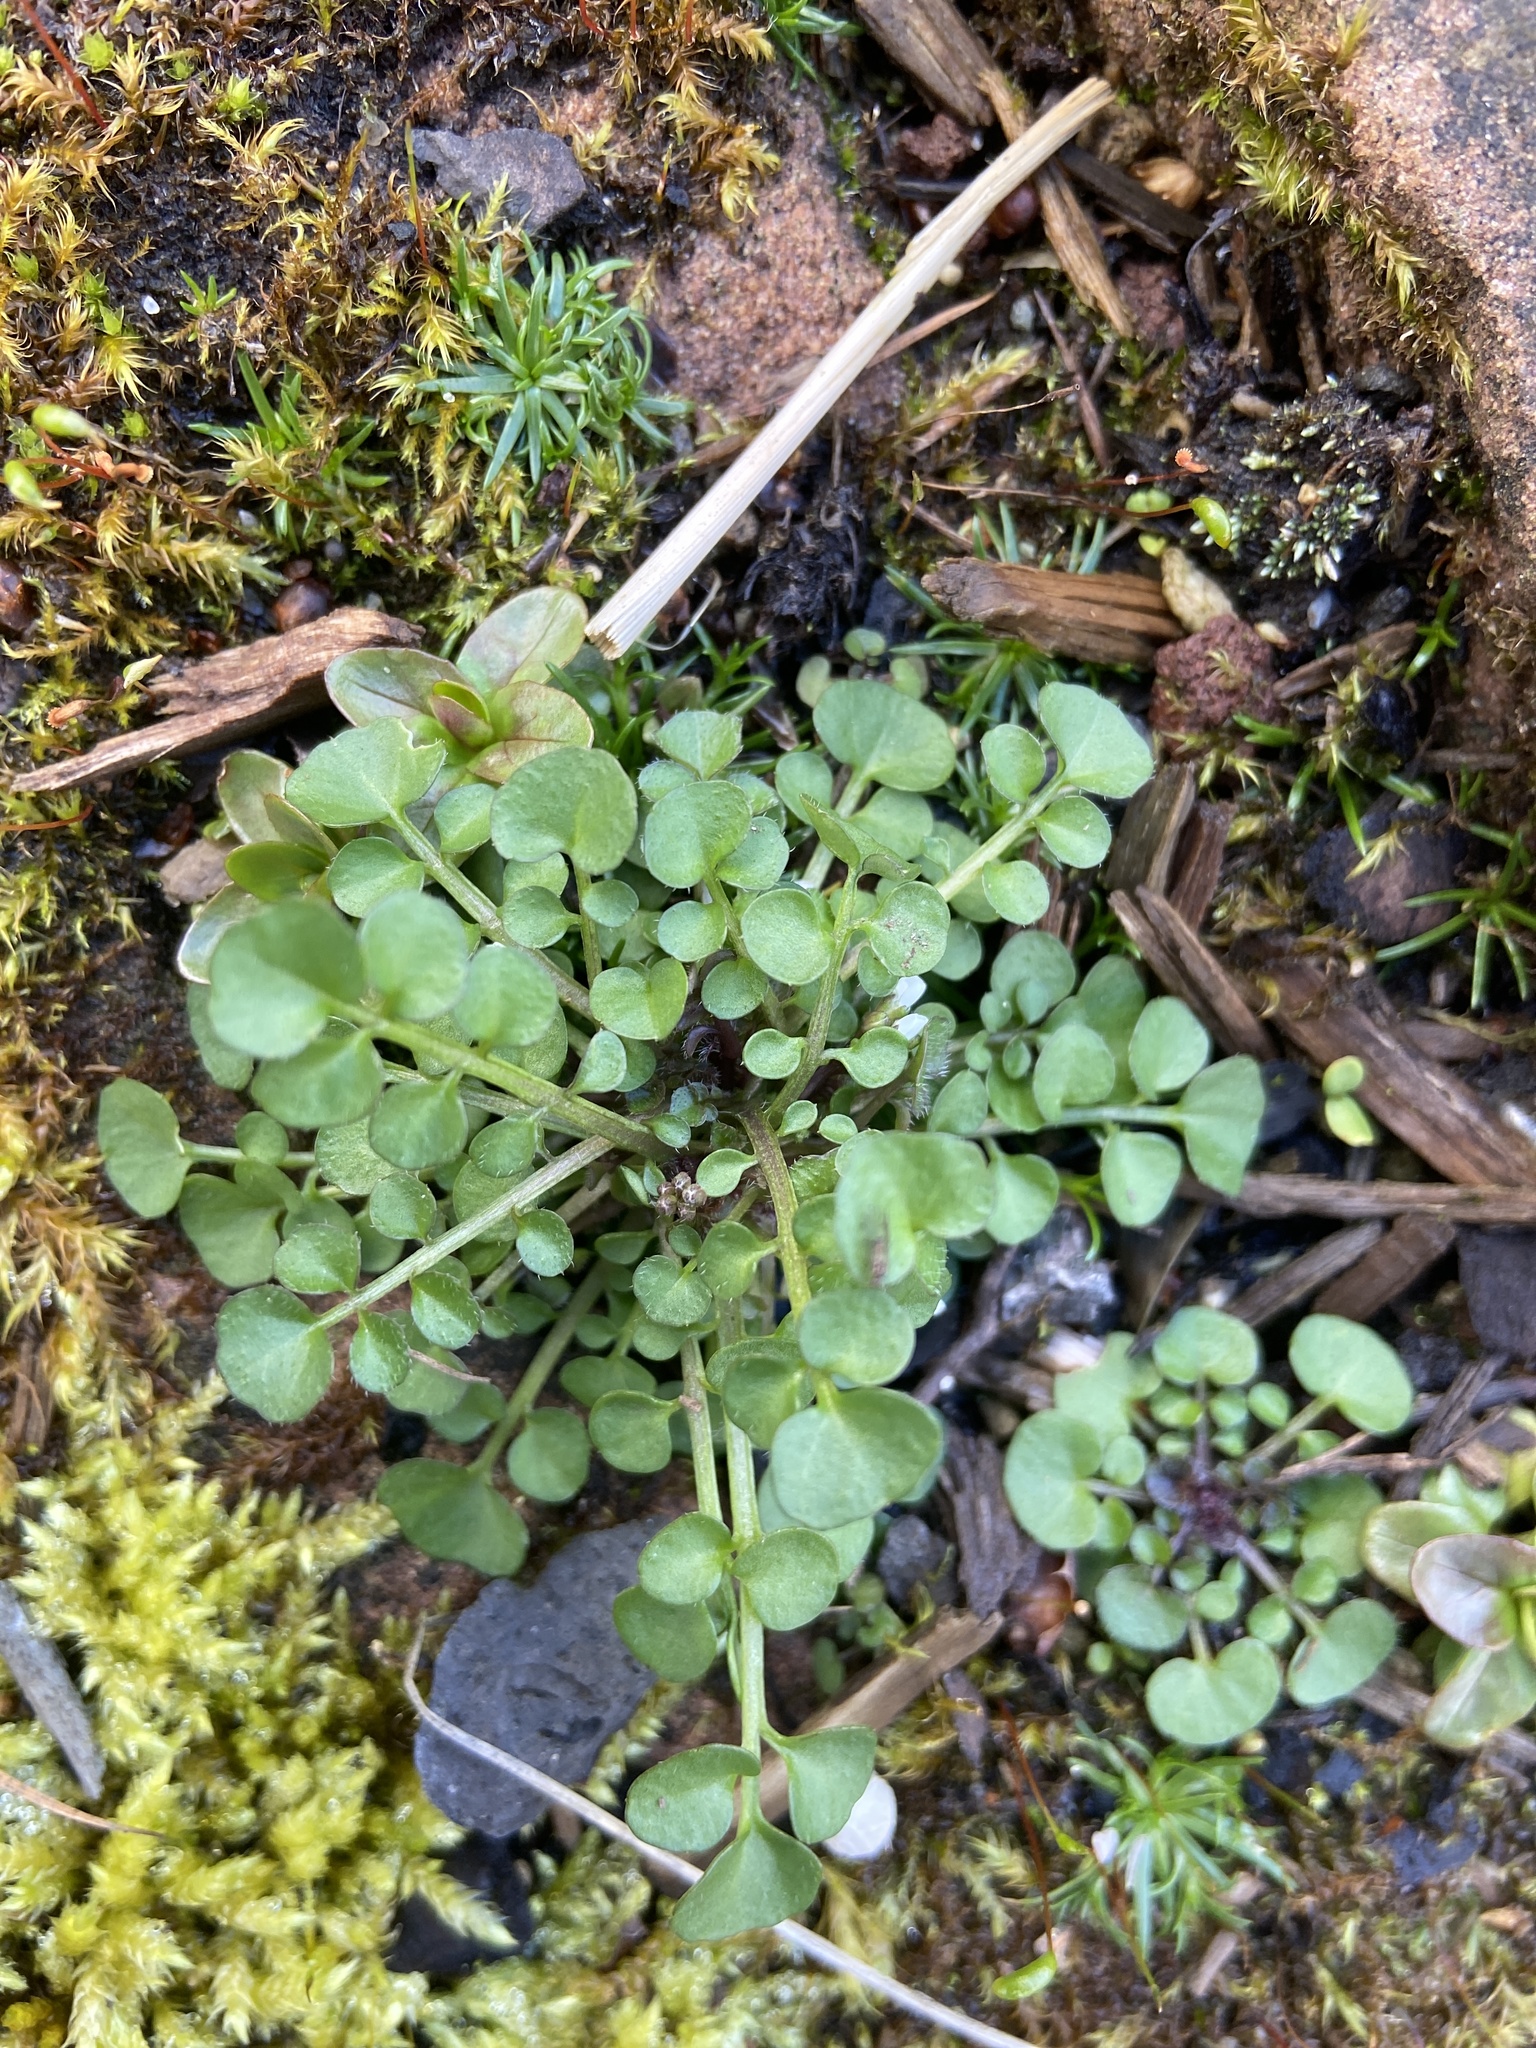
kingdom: Plantae
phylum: Tracheophyta
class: Magnoliopsida
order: Brassicales
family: Brassicaceae
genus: Cardamine
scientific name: Cardamine hirsuta
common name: Hairy bittercress
